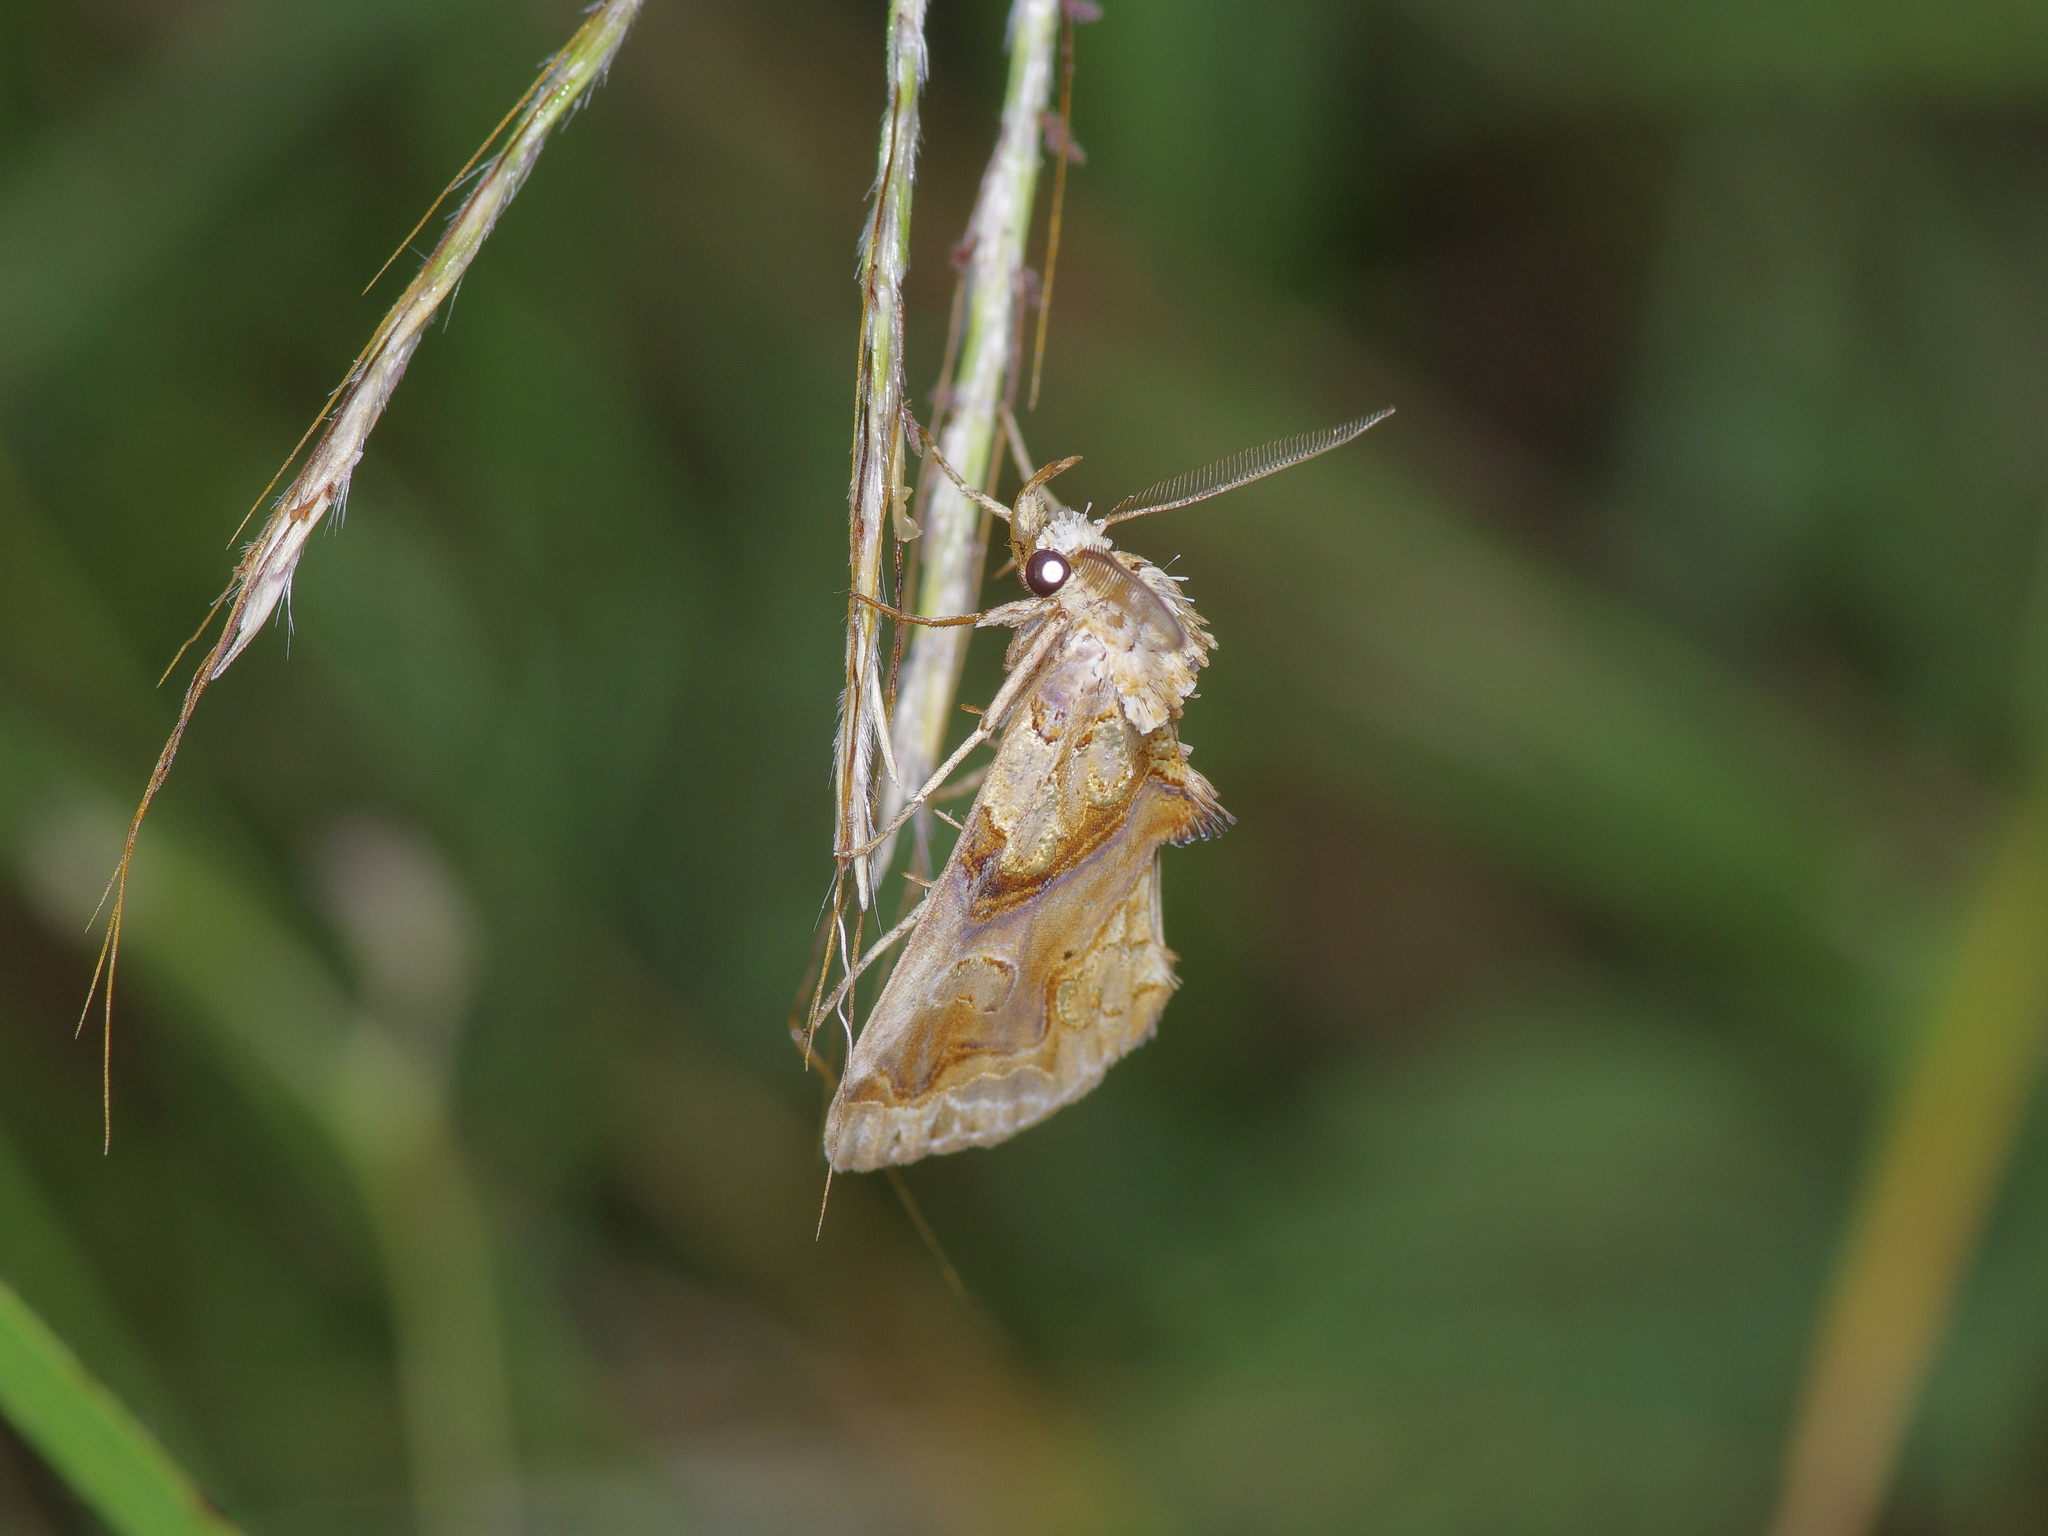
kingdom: Animalia
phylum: Arthropoda
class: Insecta
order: Lepidoptera
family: Erebidae
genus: Plusiodonta
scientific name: Plusiodonta compressipalpis
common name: Moonseed moth
